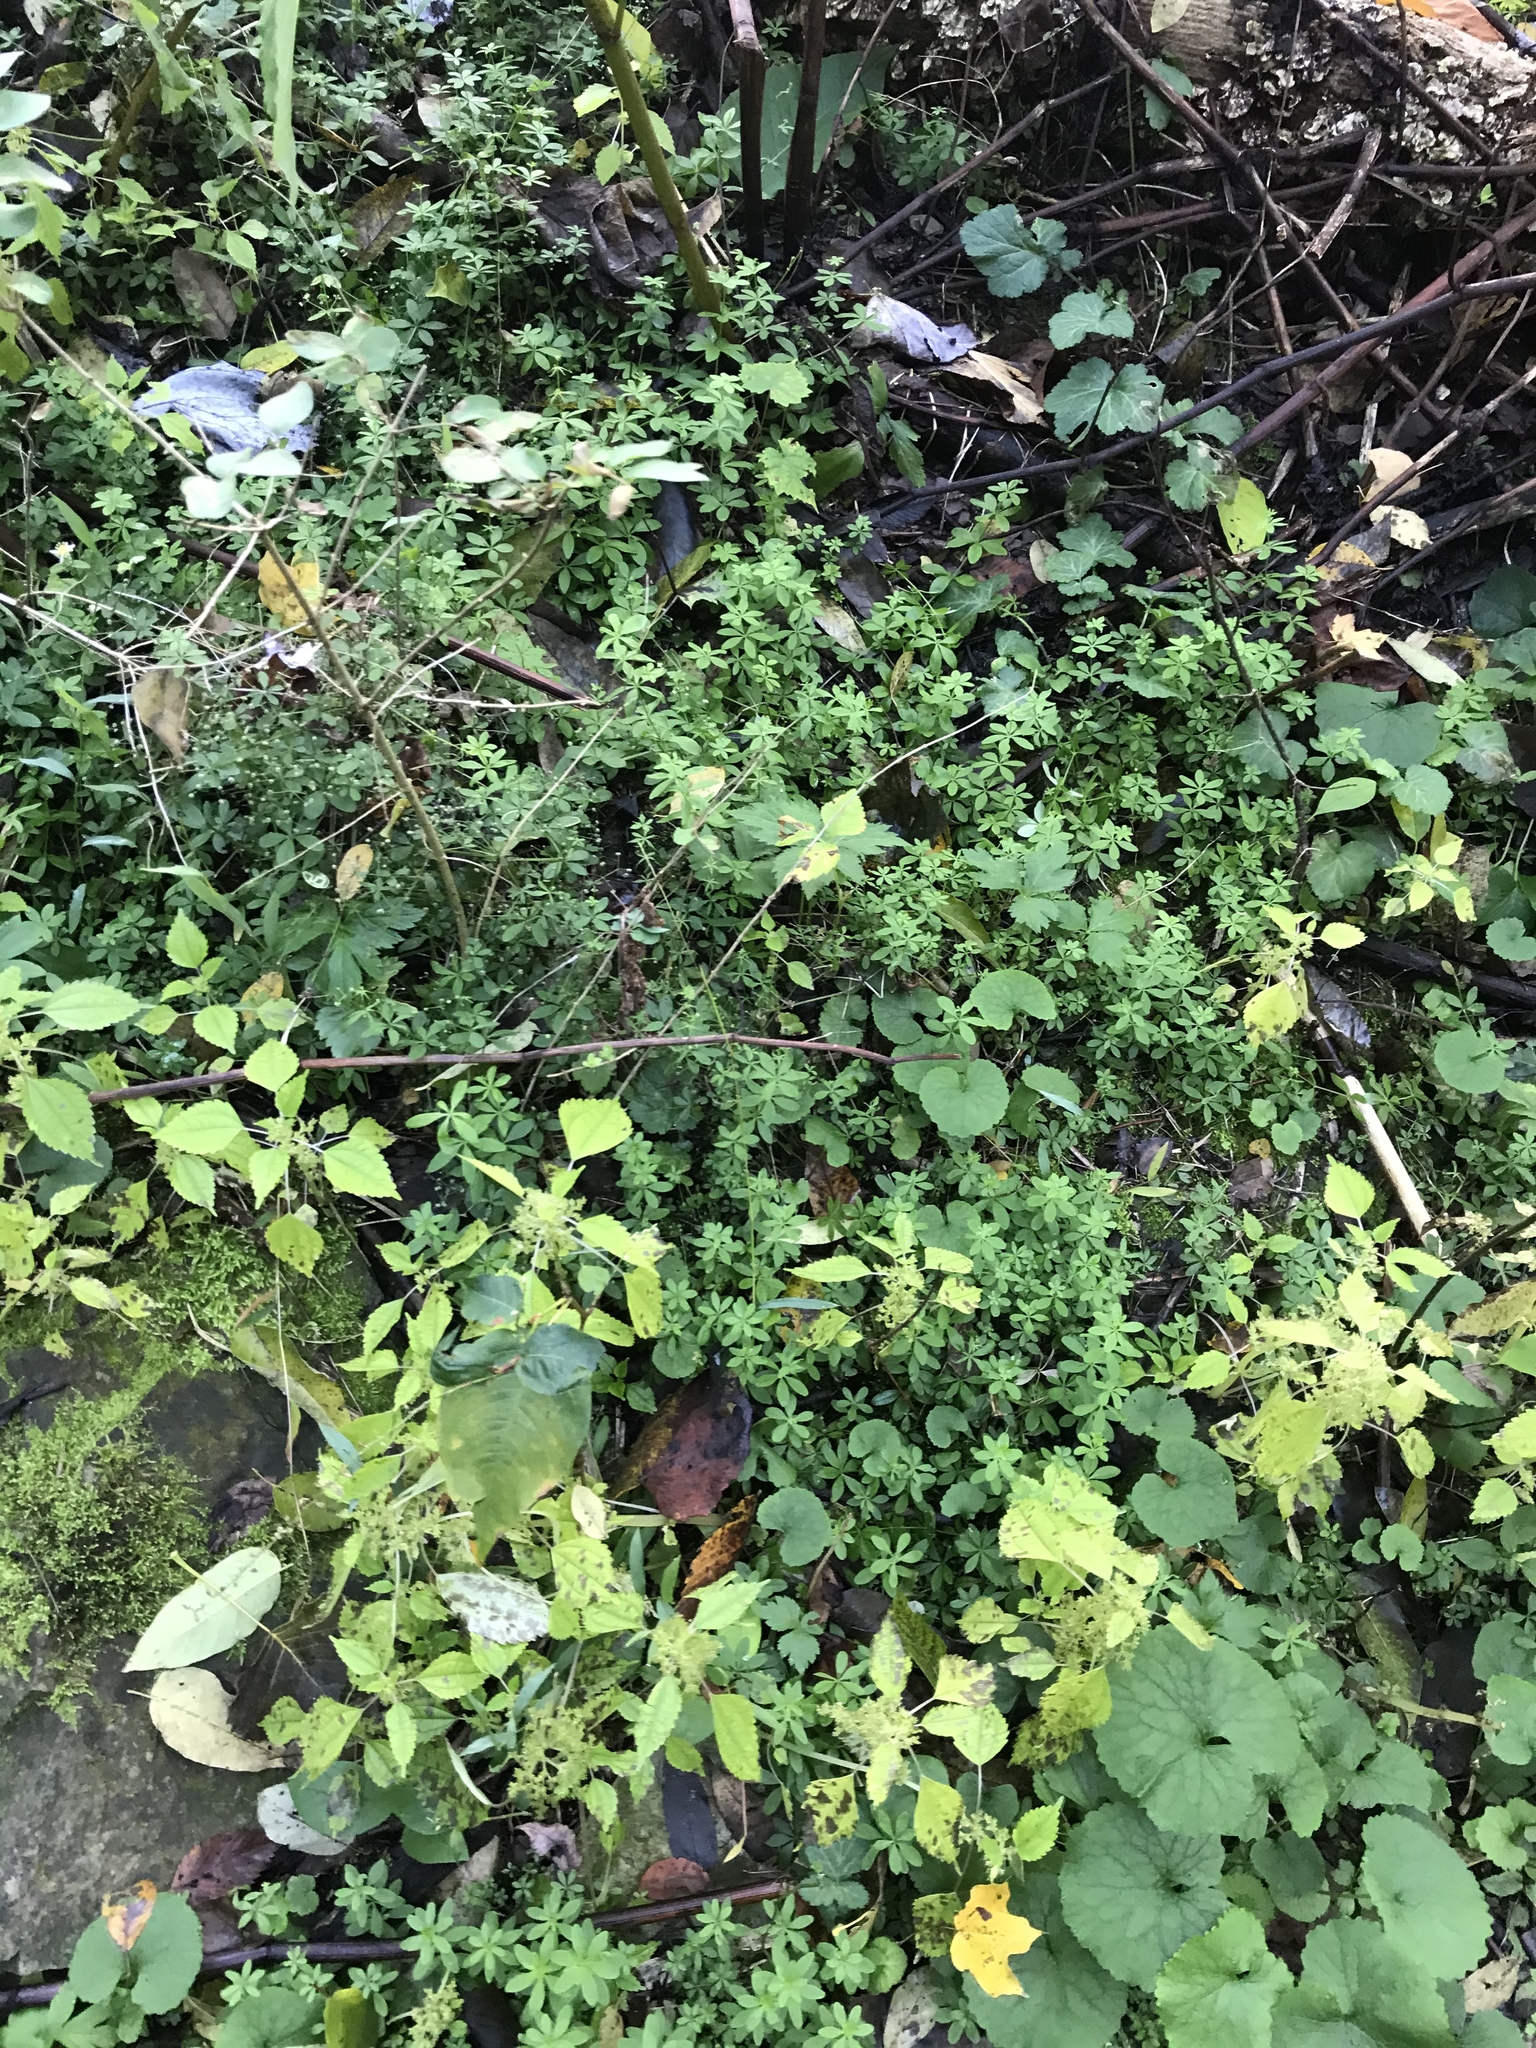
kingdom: Plantae
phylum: Tracheophyta
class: Magnoliopsida
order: Gentianales
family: Rubiaceae
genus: Galium
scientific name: Galium triflorum
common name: Fragrant bedstraw
